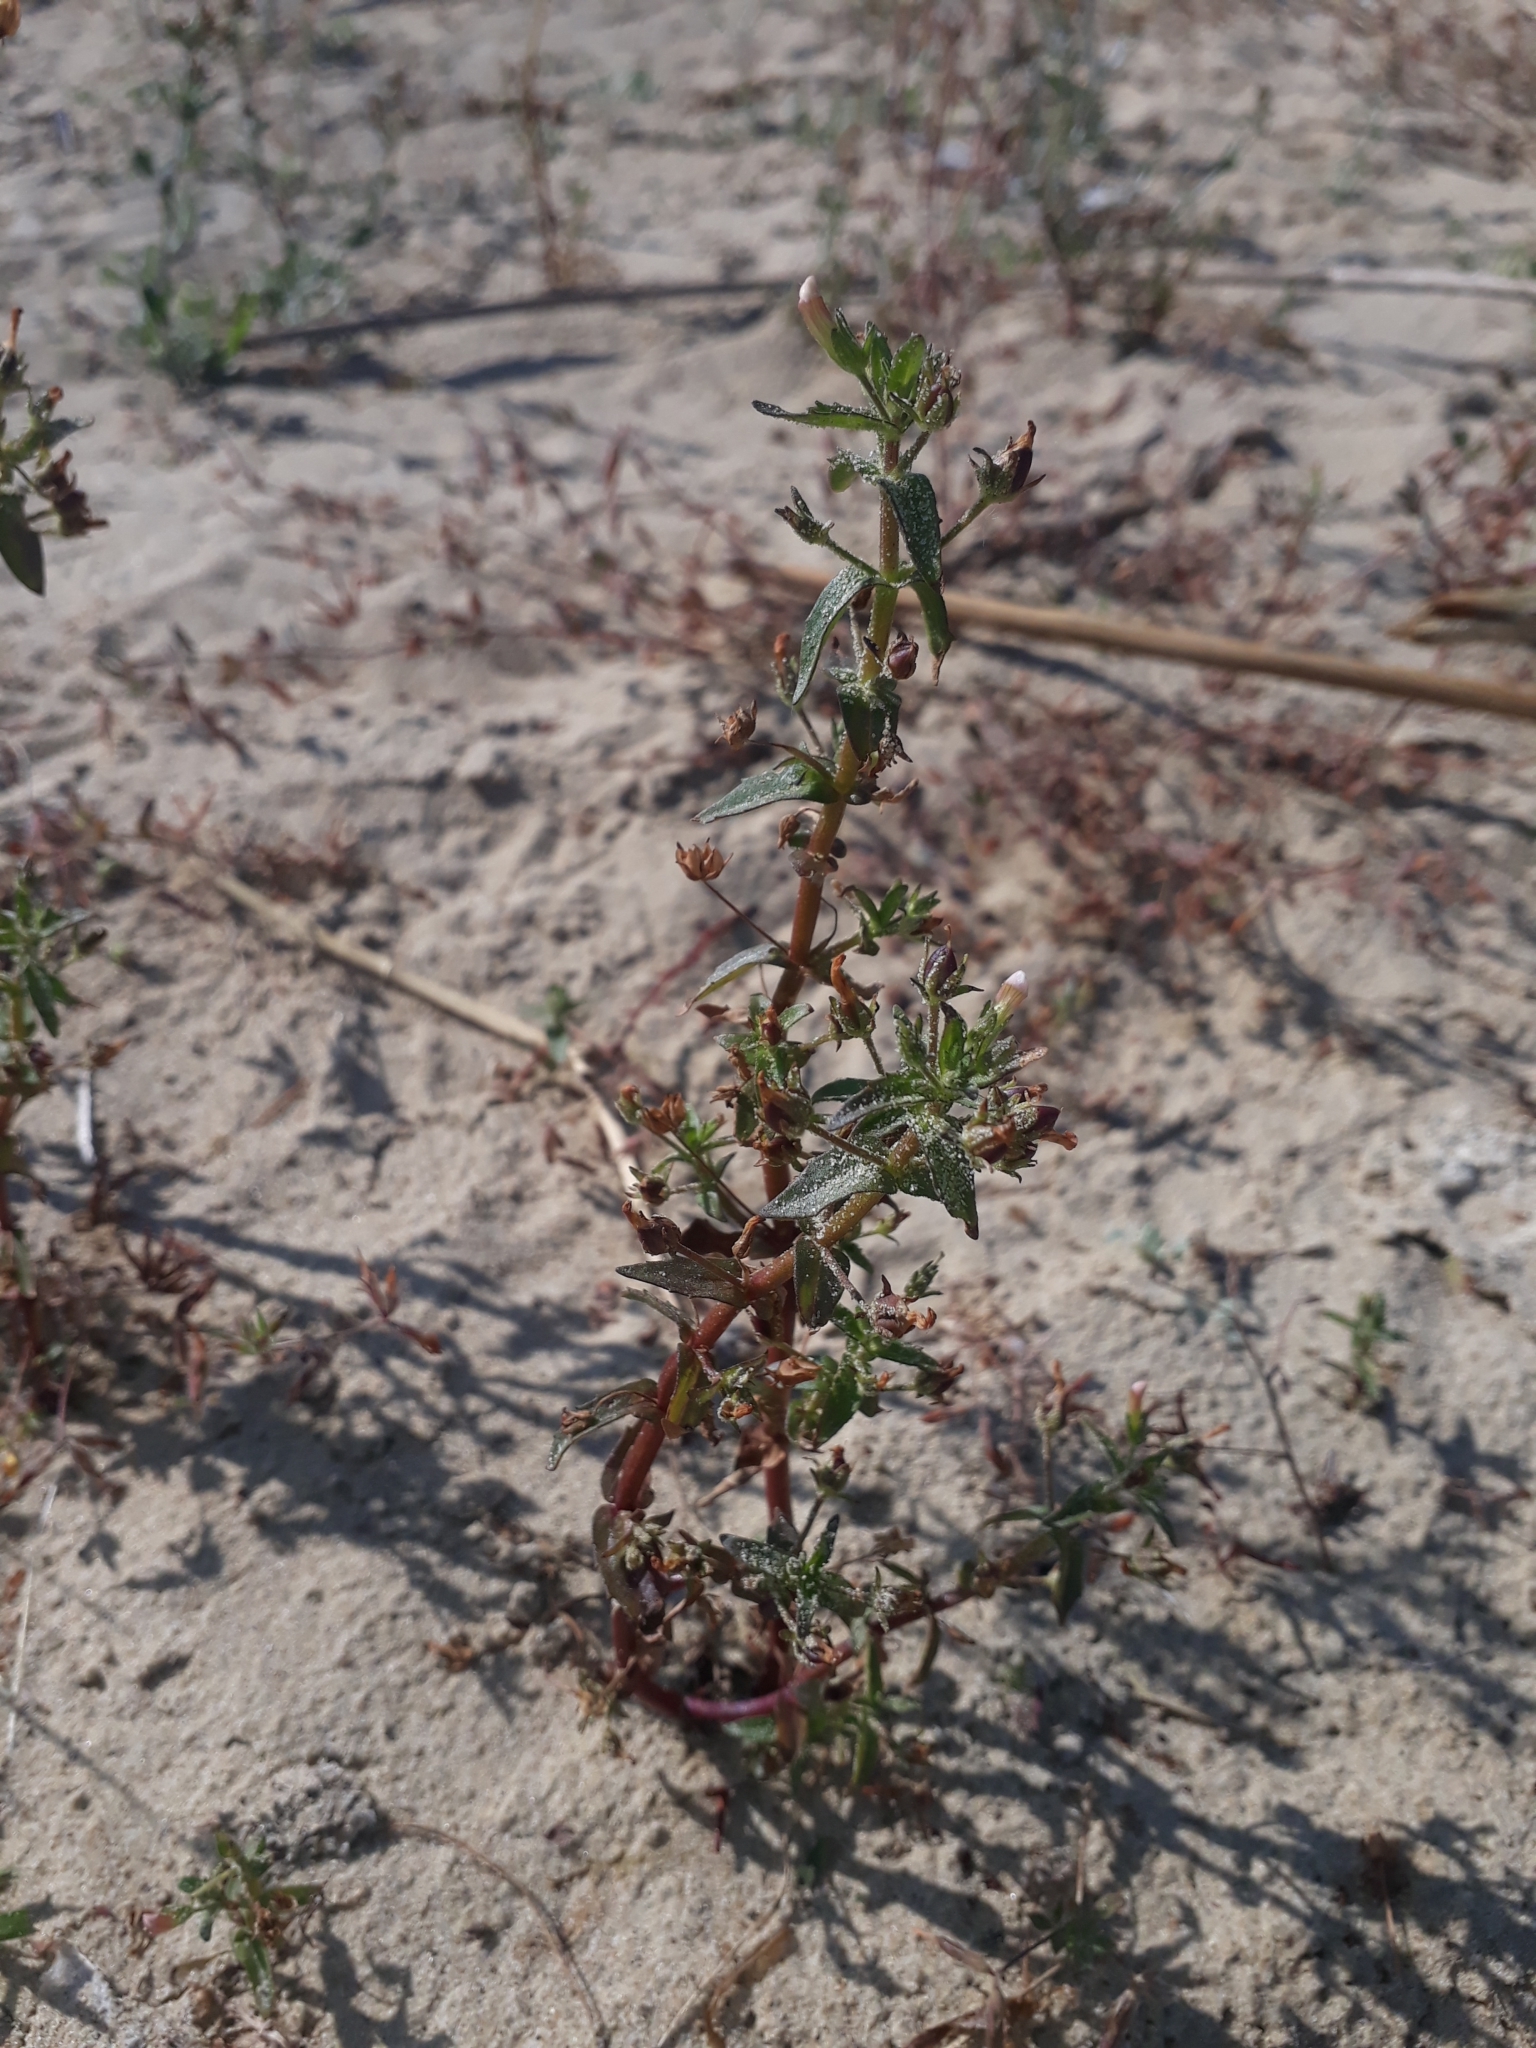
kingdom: Plantae
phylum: Tracheophyta
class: Magnoliopsida
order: Lamiales
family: Plantaginaceae
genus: Gratiola
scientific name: Gratiola pedunculata
